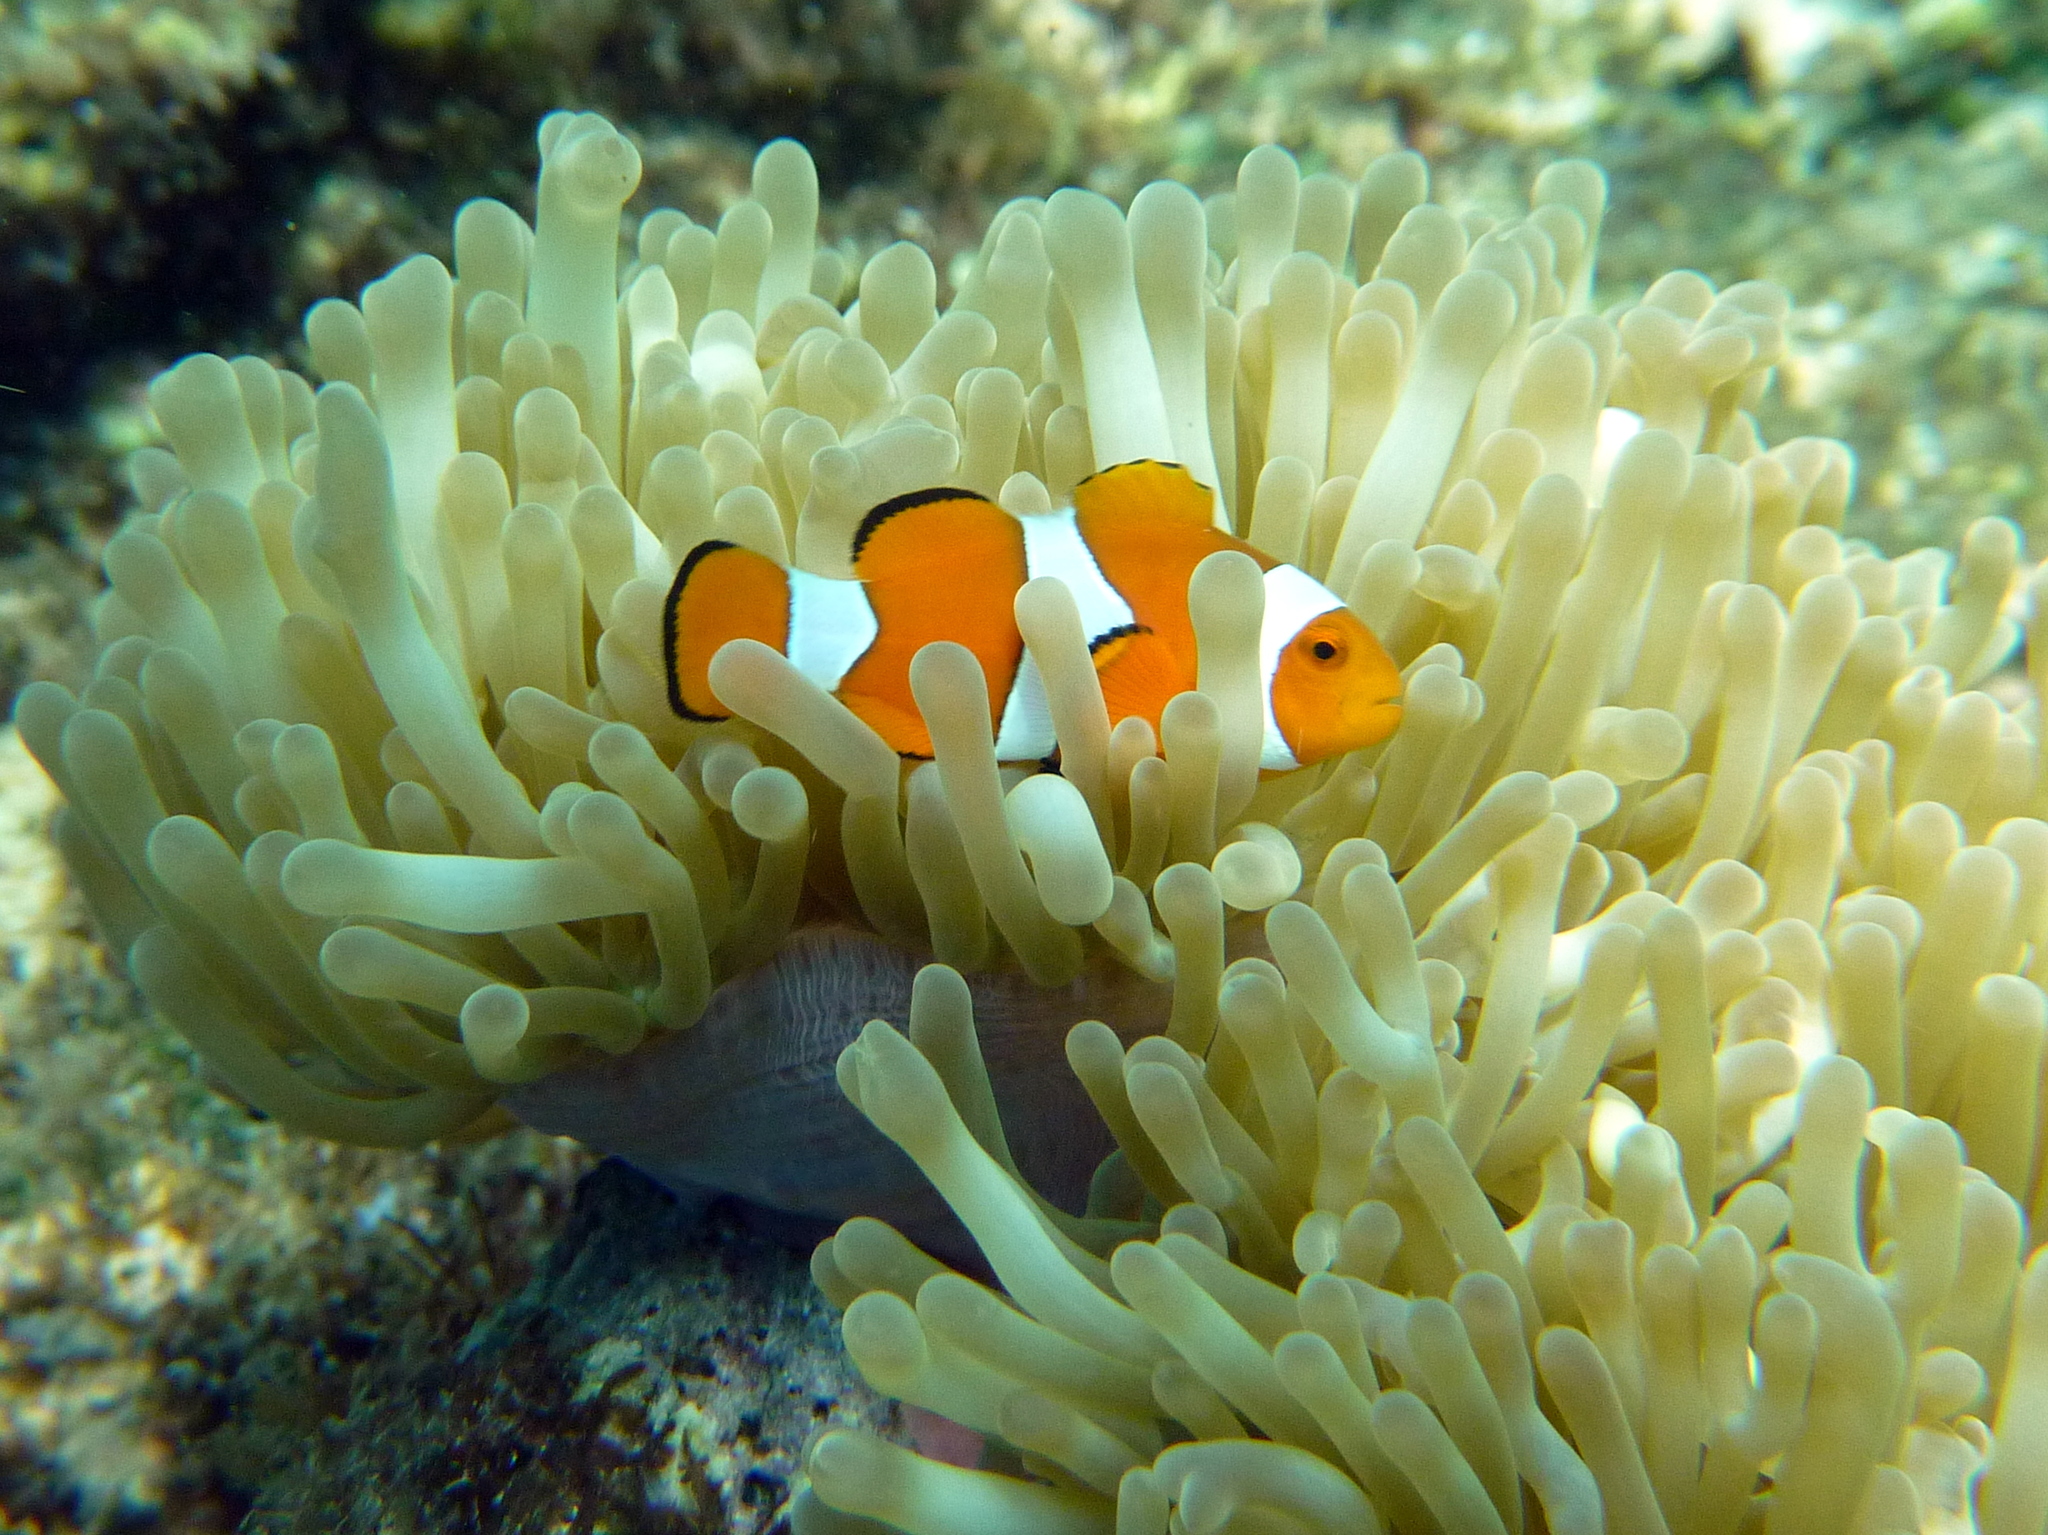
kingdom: Animalia
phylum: Chordata
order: Perciformes
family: Pomacentridae
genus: Amphiprion
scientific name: Amphiprion percula
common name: Clown anemonefish
